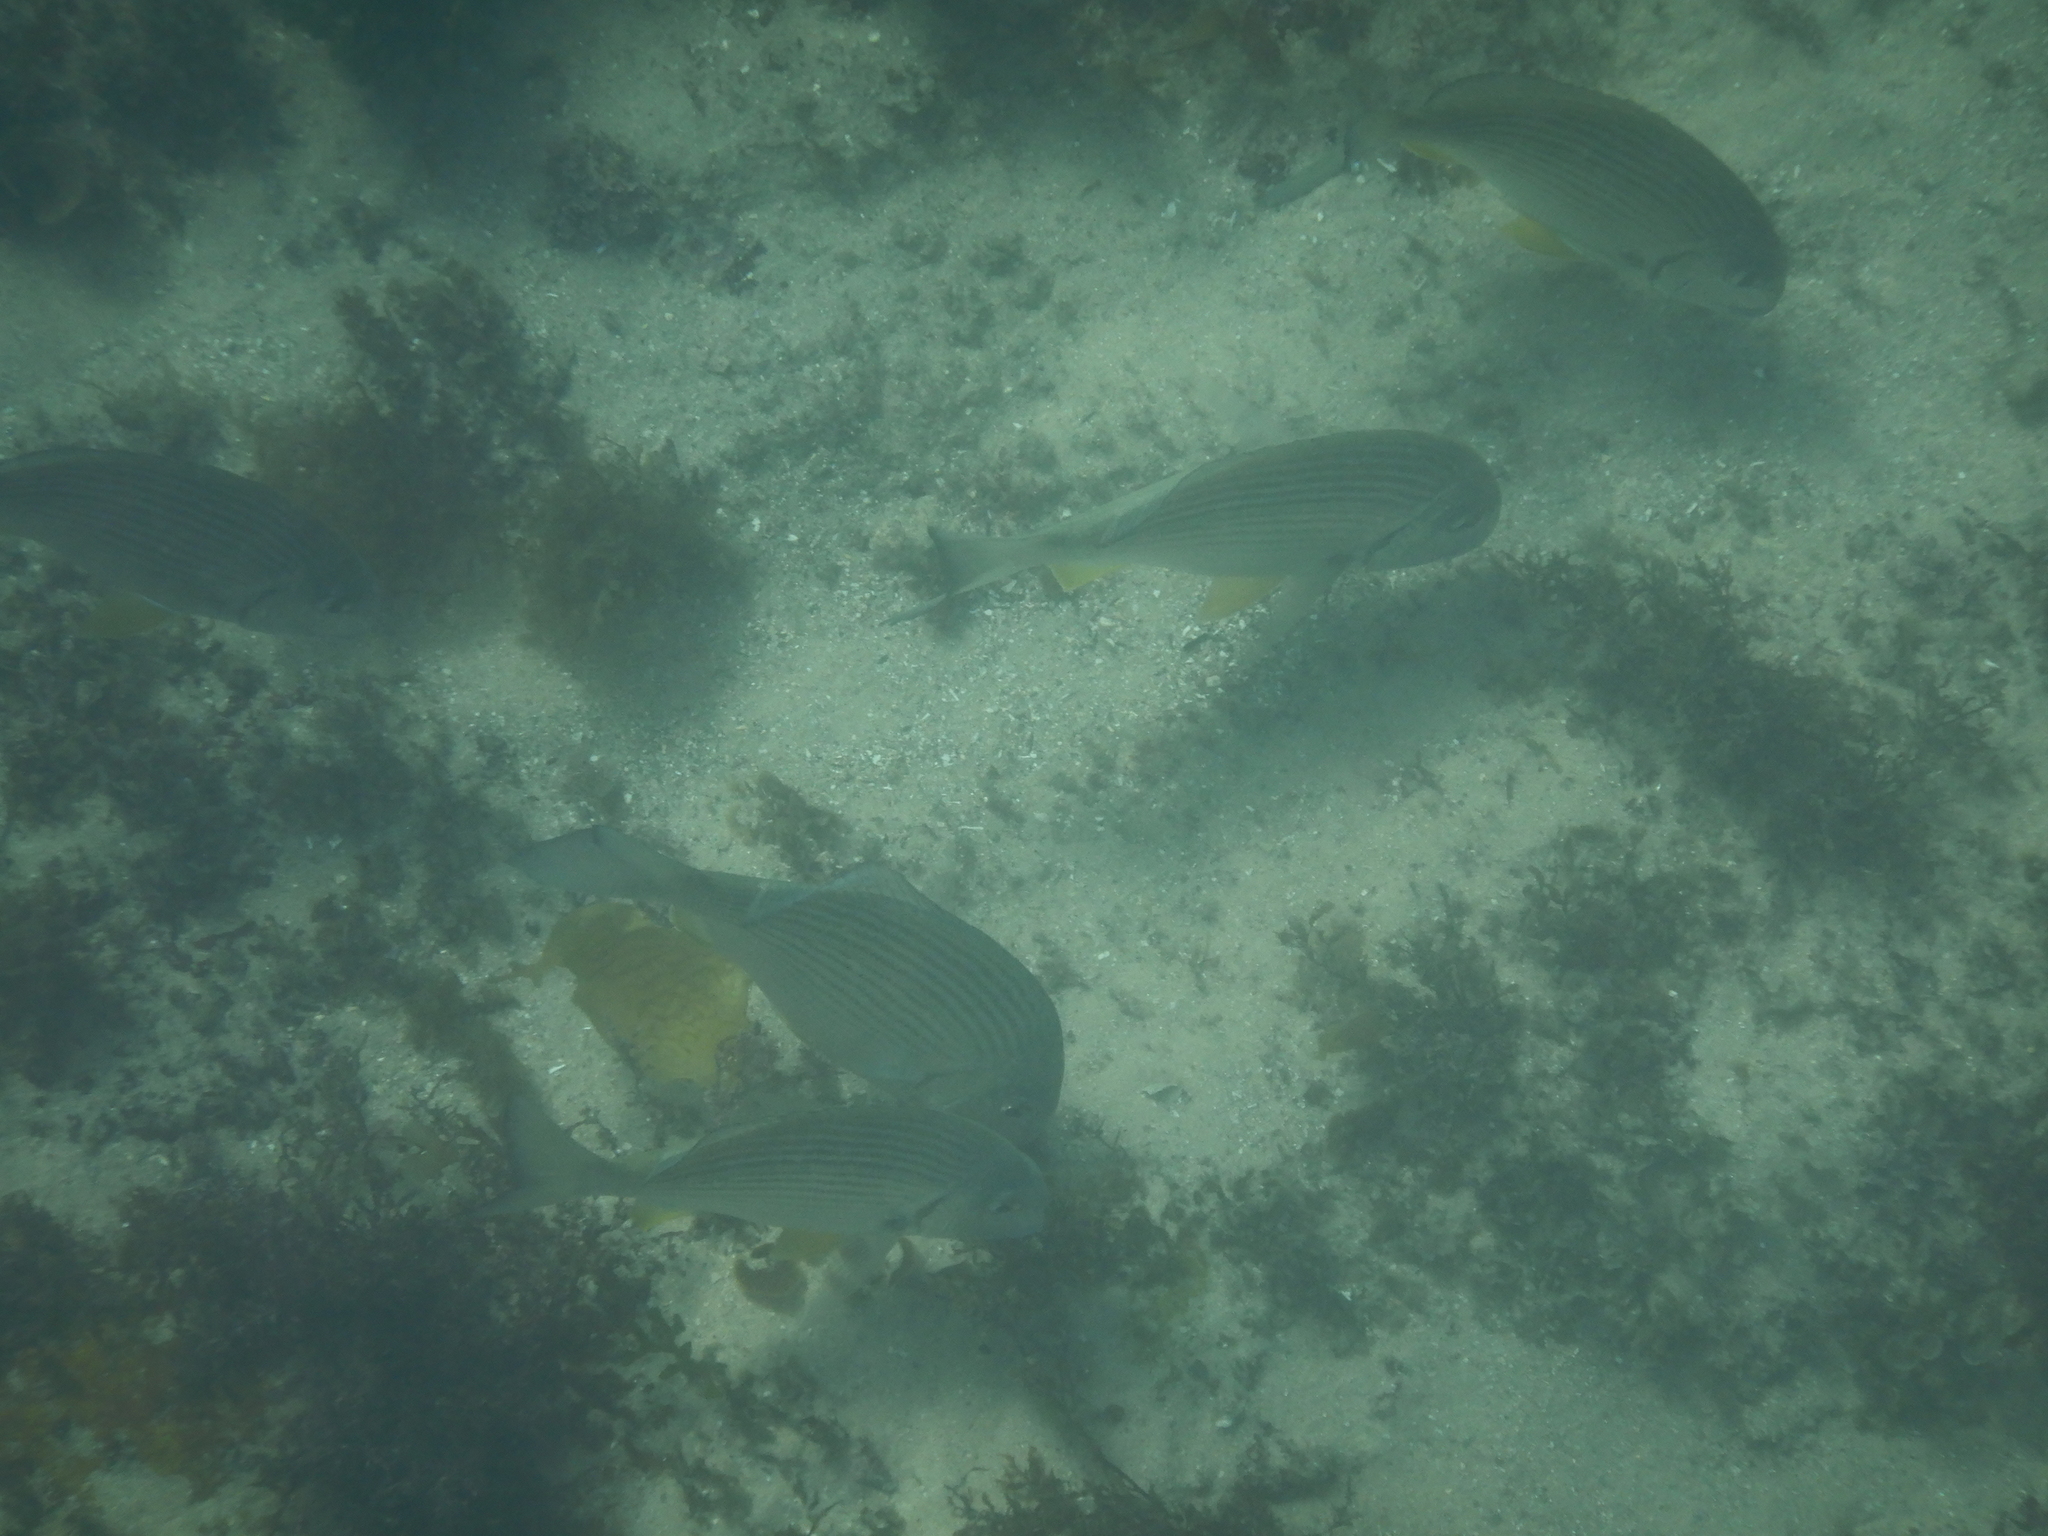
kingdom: Animalia
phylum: Chordata
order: Perciformes
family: Sparidae
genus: Rhabdosargus
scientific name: Rhabdosargus sarba
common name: Goldlined seabream
